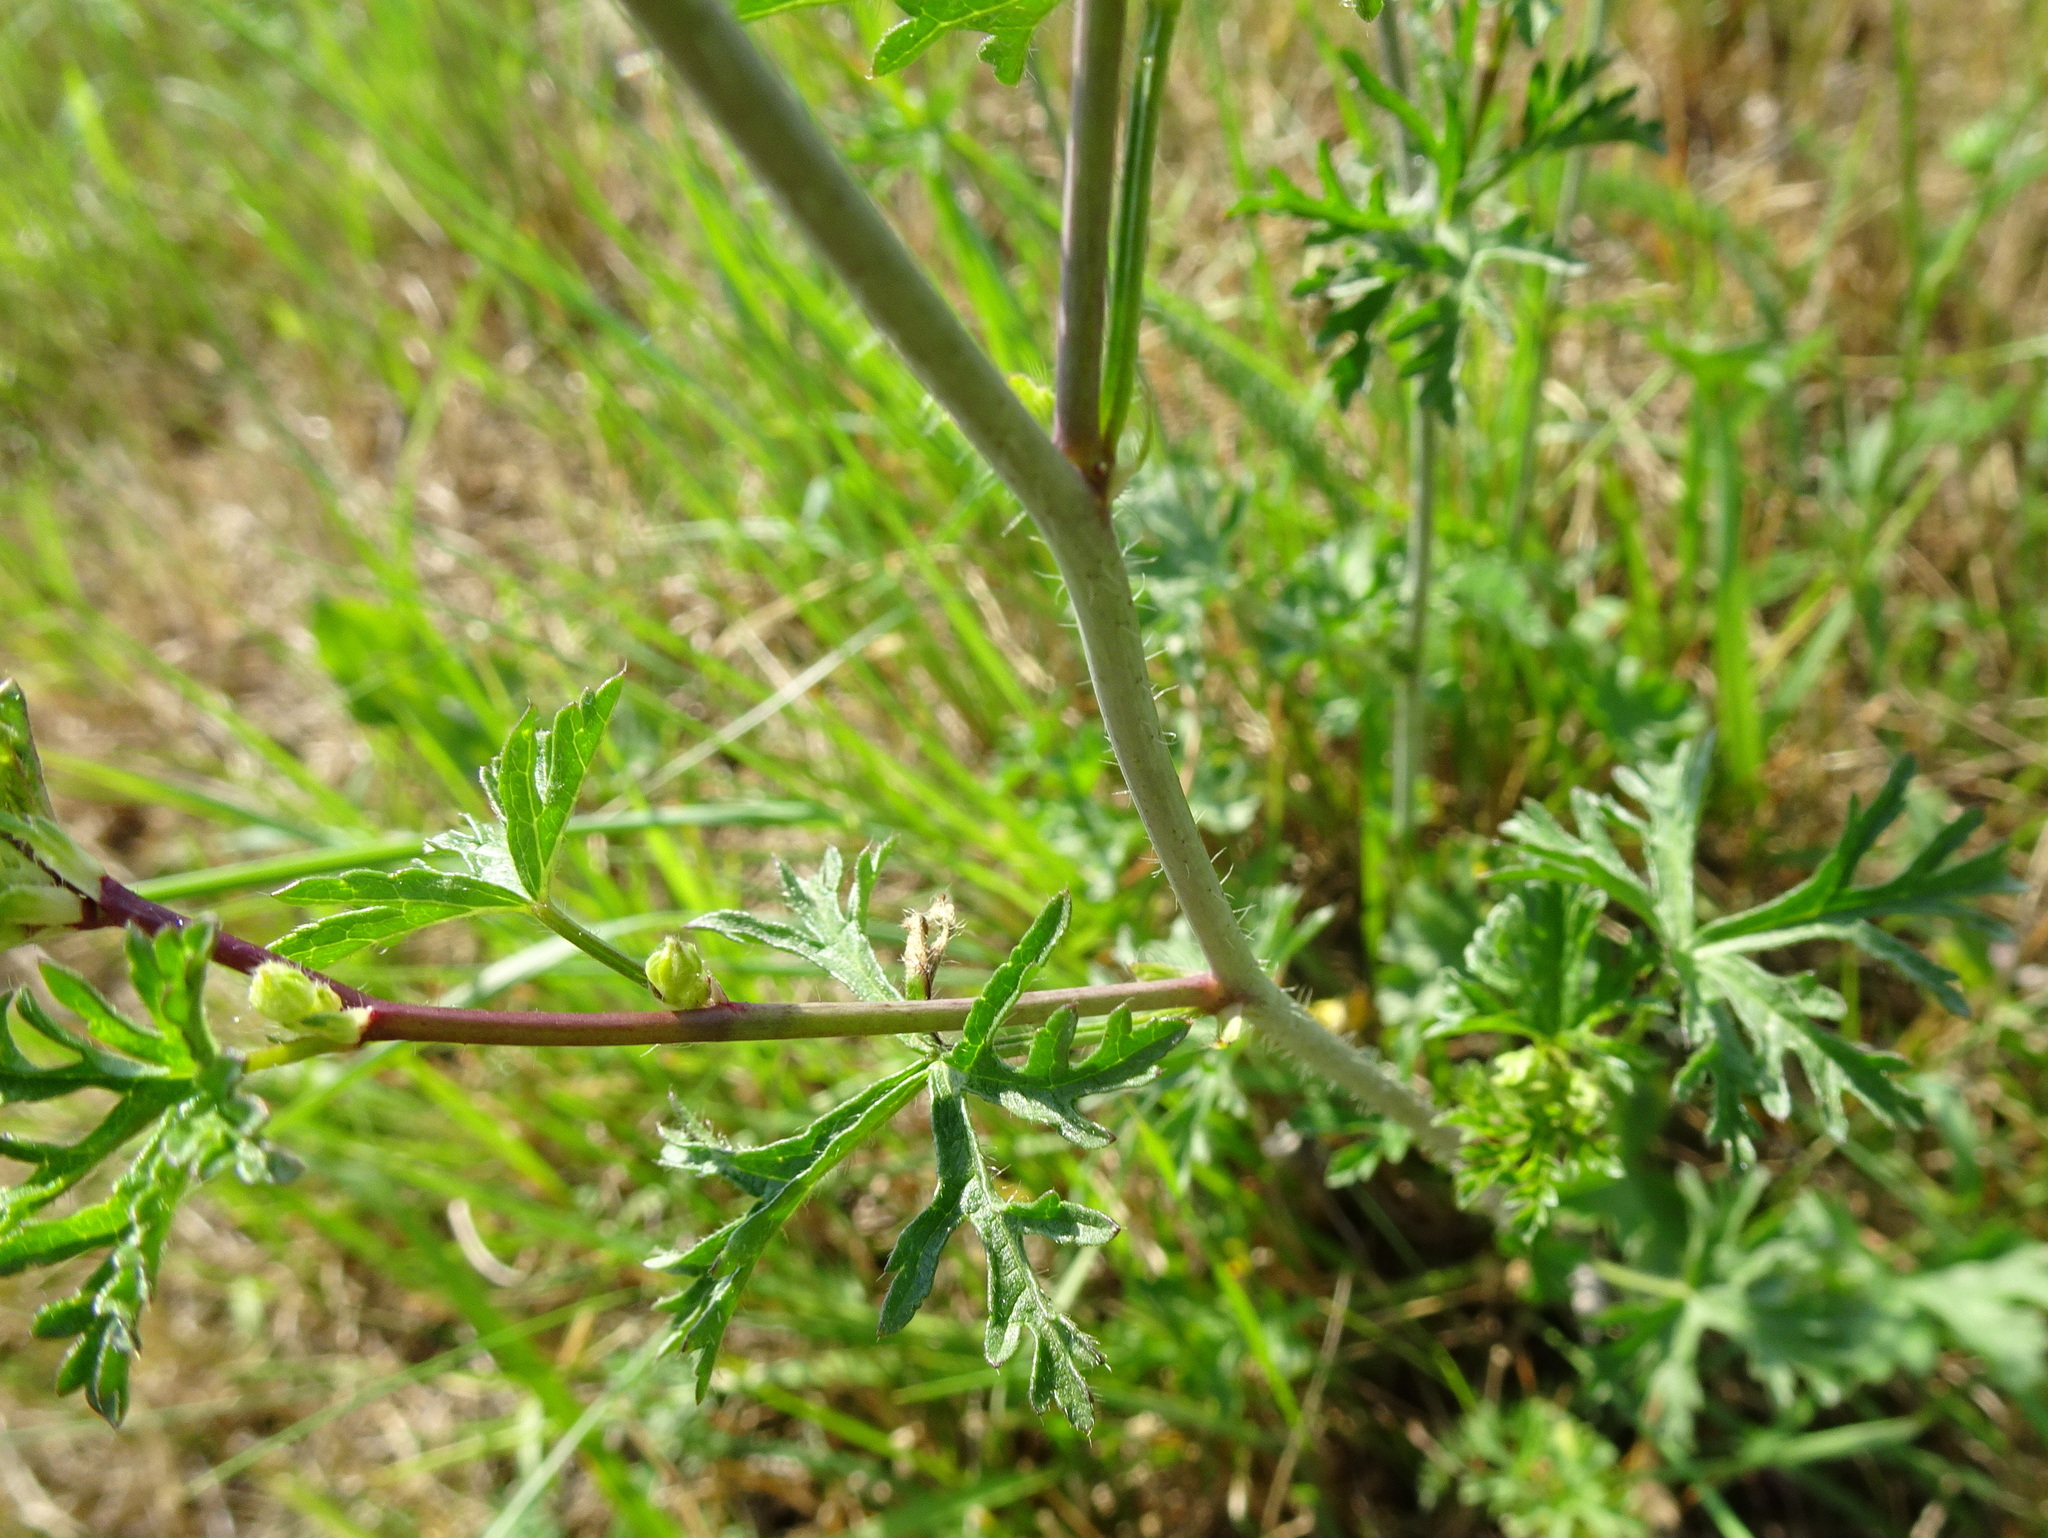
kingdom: Plantae
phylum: Tracheophyta
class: Magnoliopsida
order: Malvales
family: Malvaceae
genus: Malva
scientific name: Malva moschata
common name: Musk mallow
